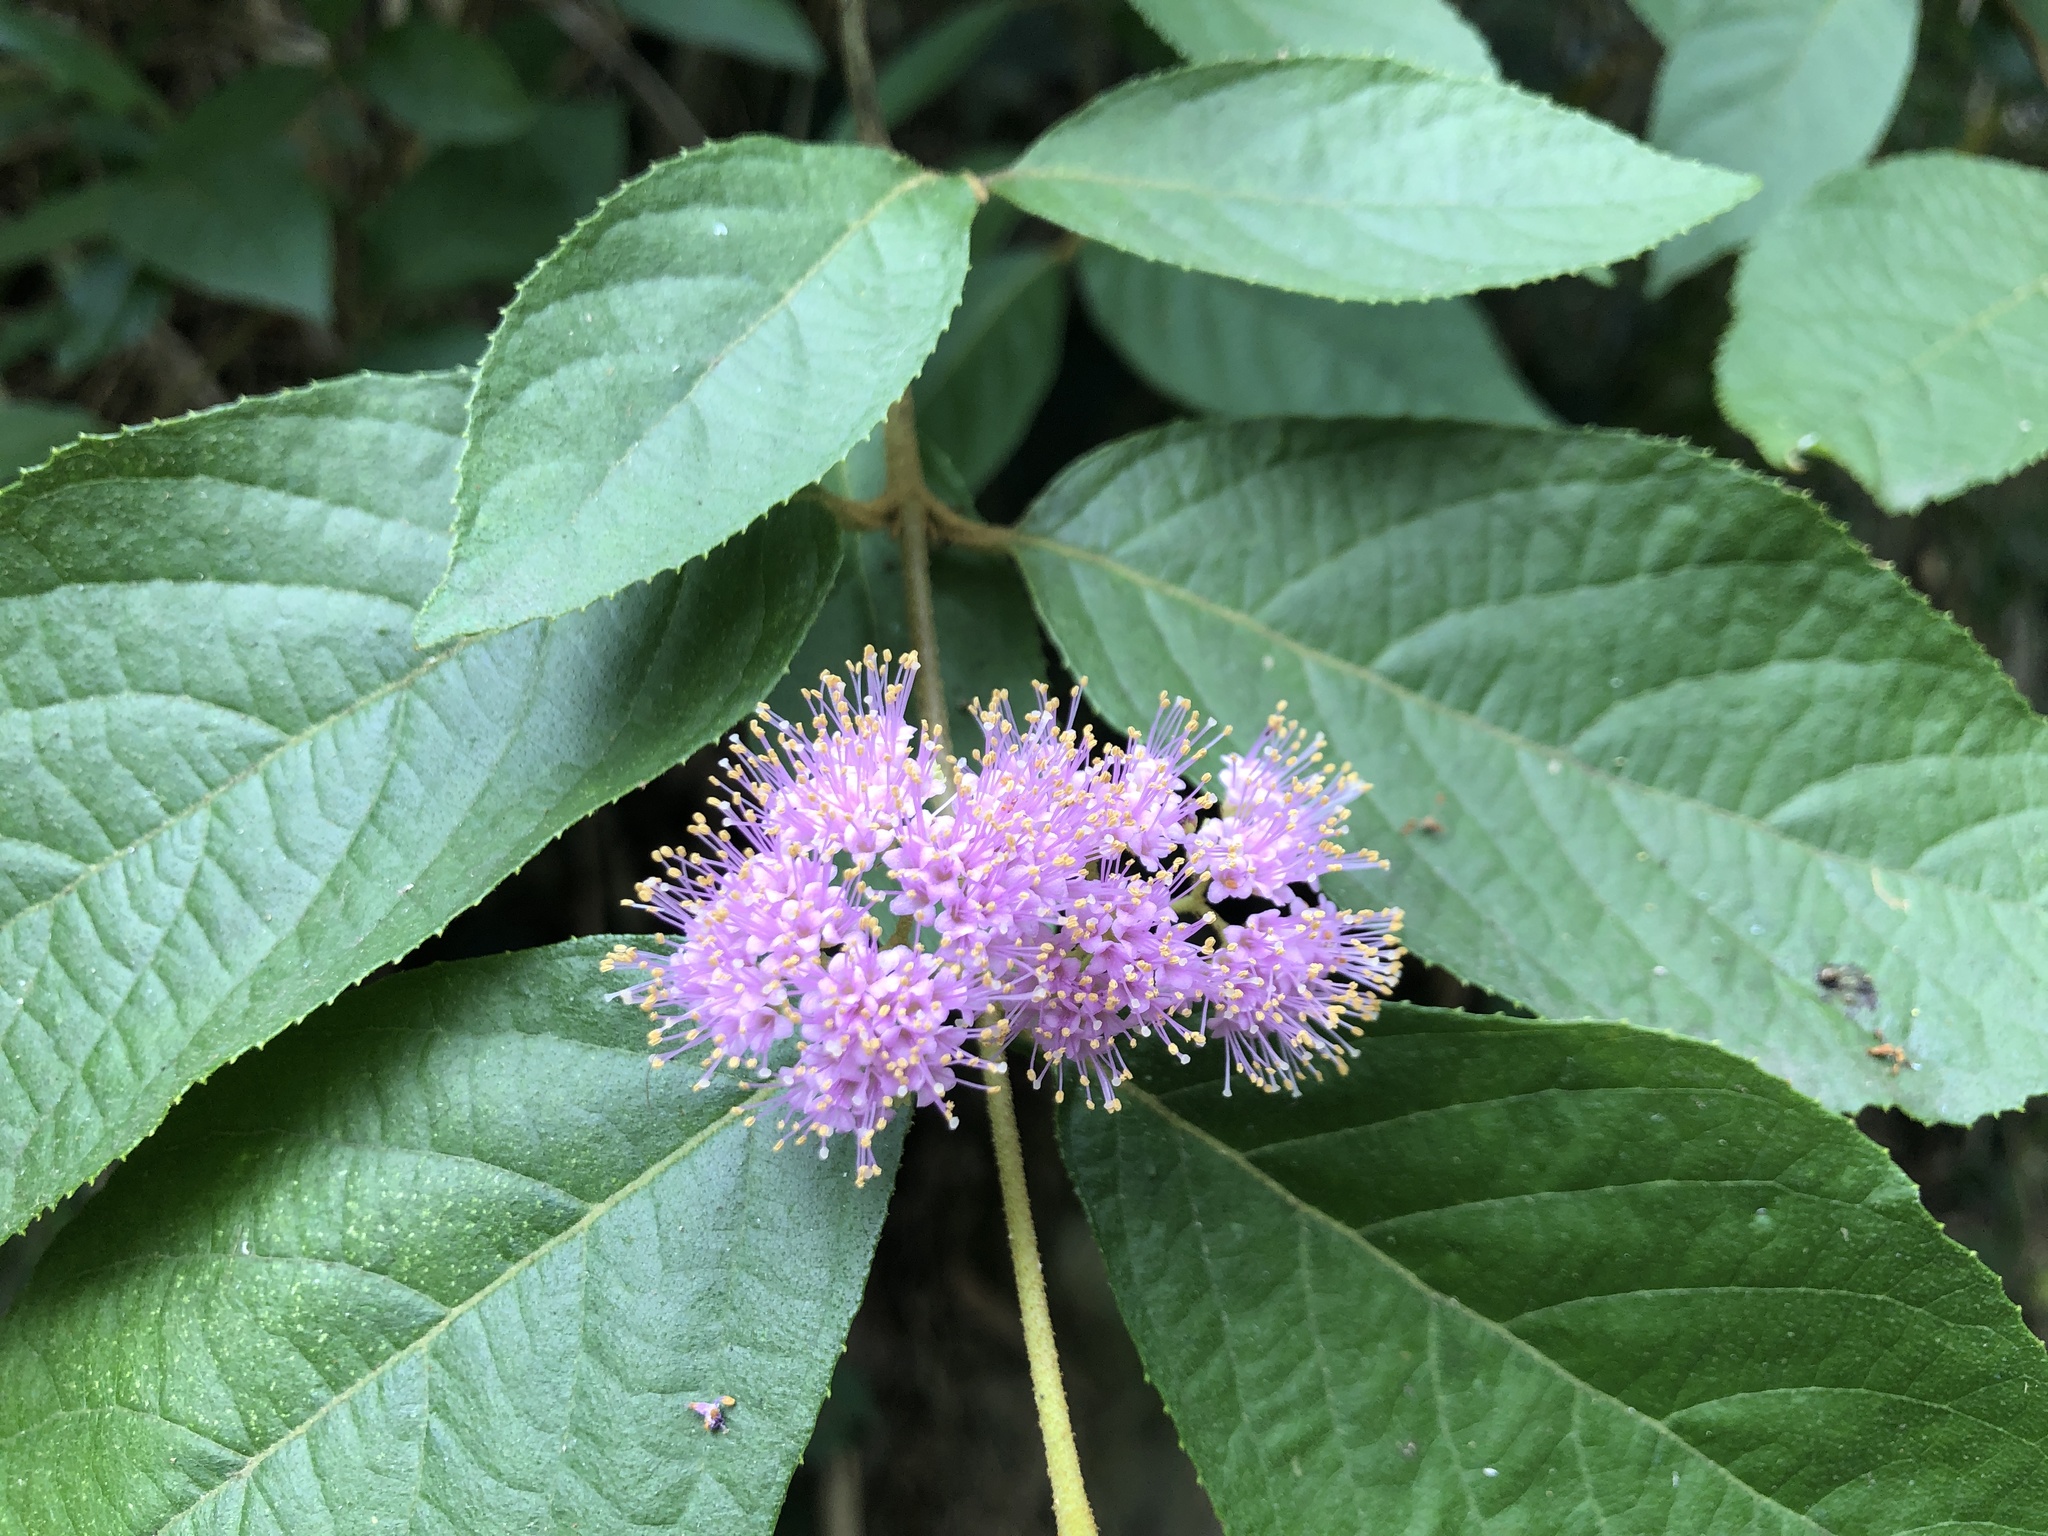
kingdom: Plantae
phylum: Tracheophyta
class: Magnoliopsida
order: Lamiales
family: Lamiaceae
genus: Callicarpa
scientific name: Callicarpa pedunculata
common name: Velvetleaf
